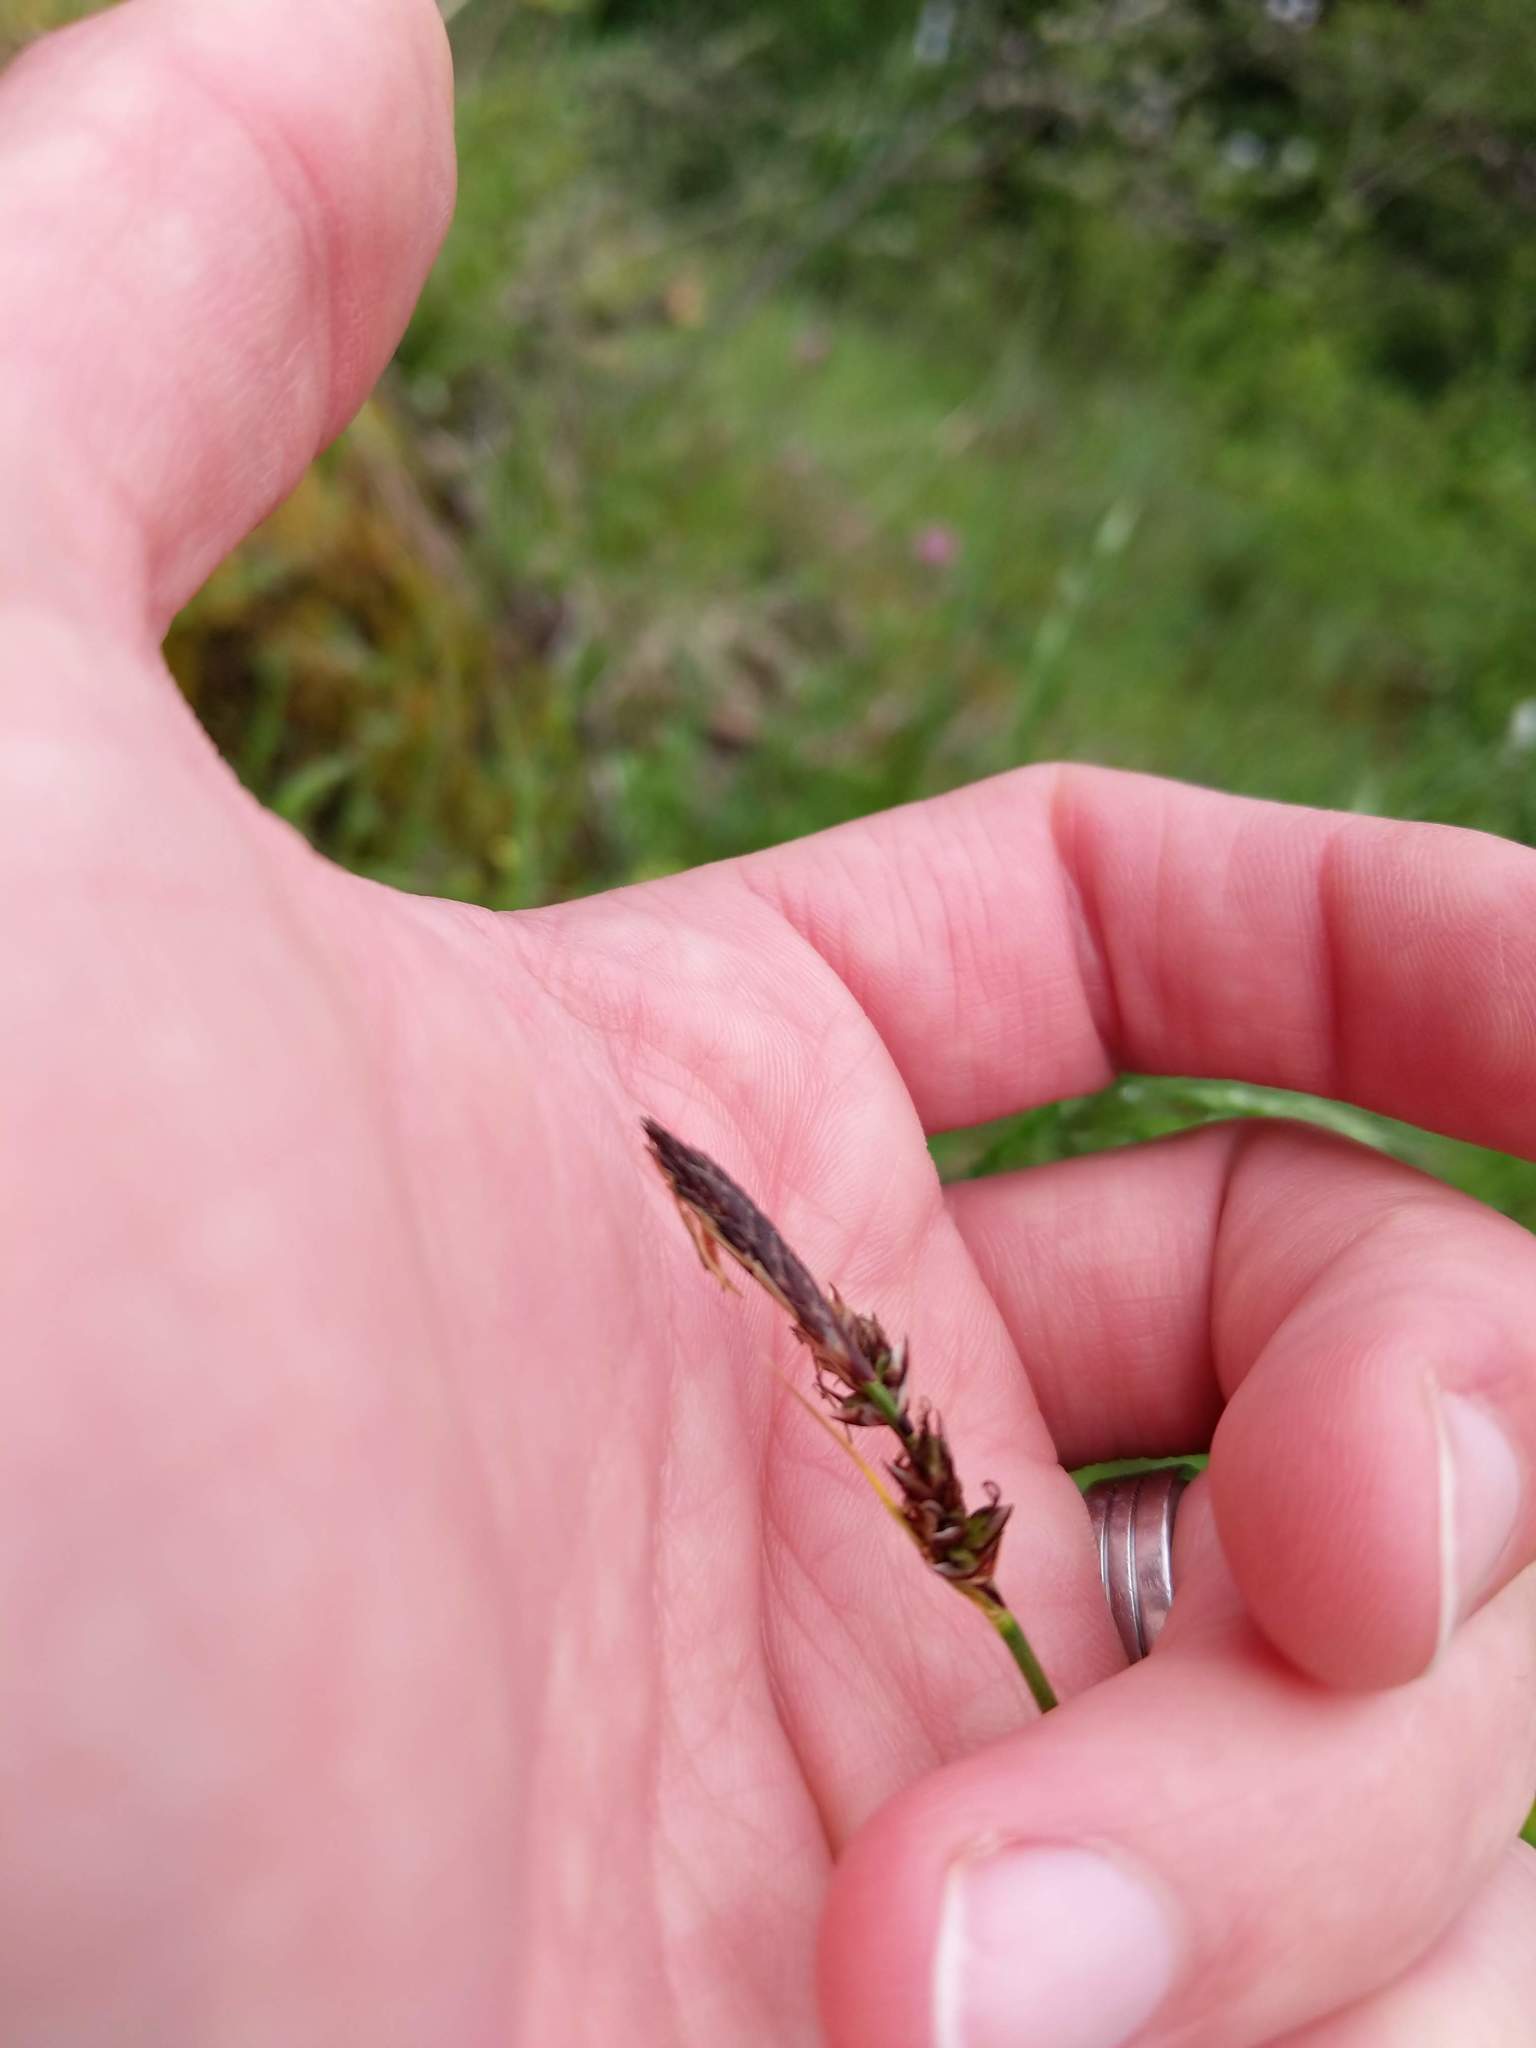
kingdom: Plantae
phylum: Tracheophyta
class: Liliopsida
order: Poales
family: Cyperaceae
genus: Carex
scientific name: Carex inops
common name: Long-stolon sedge
